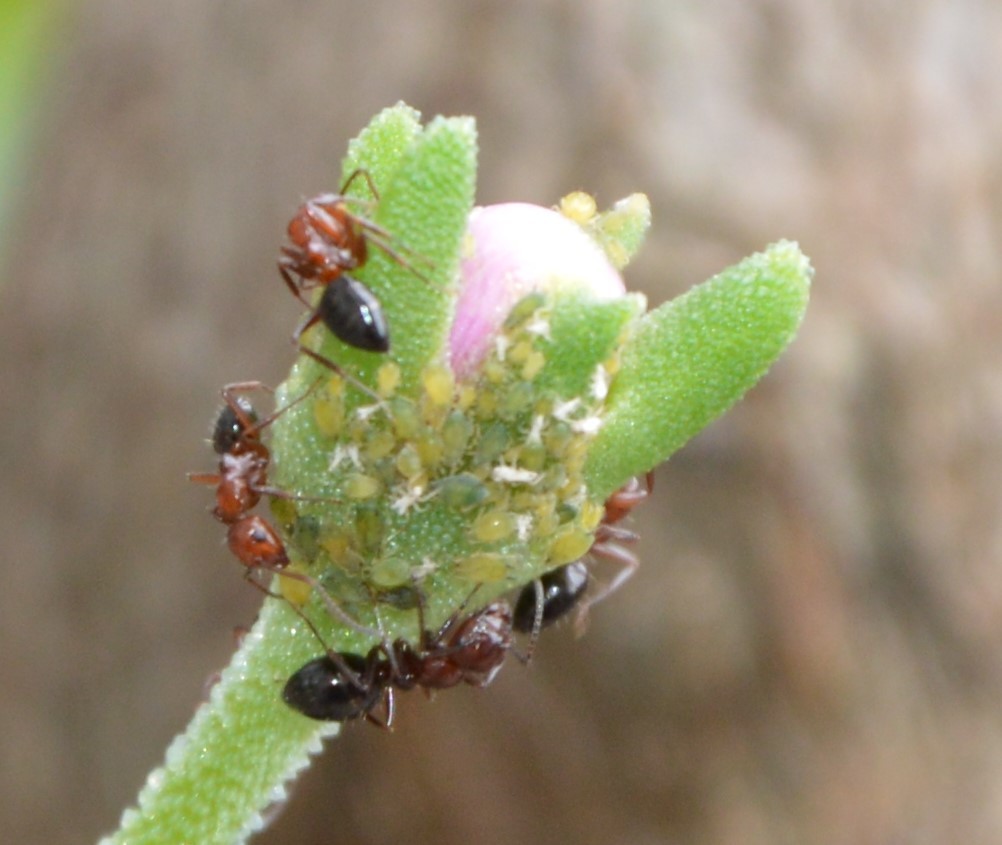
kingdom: Animalia
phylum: Arthropoda
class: Insecta
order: Hymenoptera
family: Formicidae
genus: Camponotus
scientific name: Camponotus lateralis
